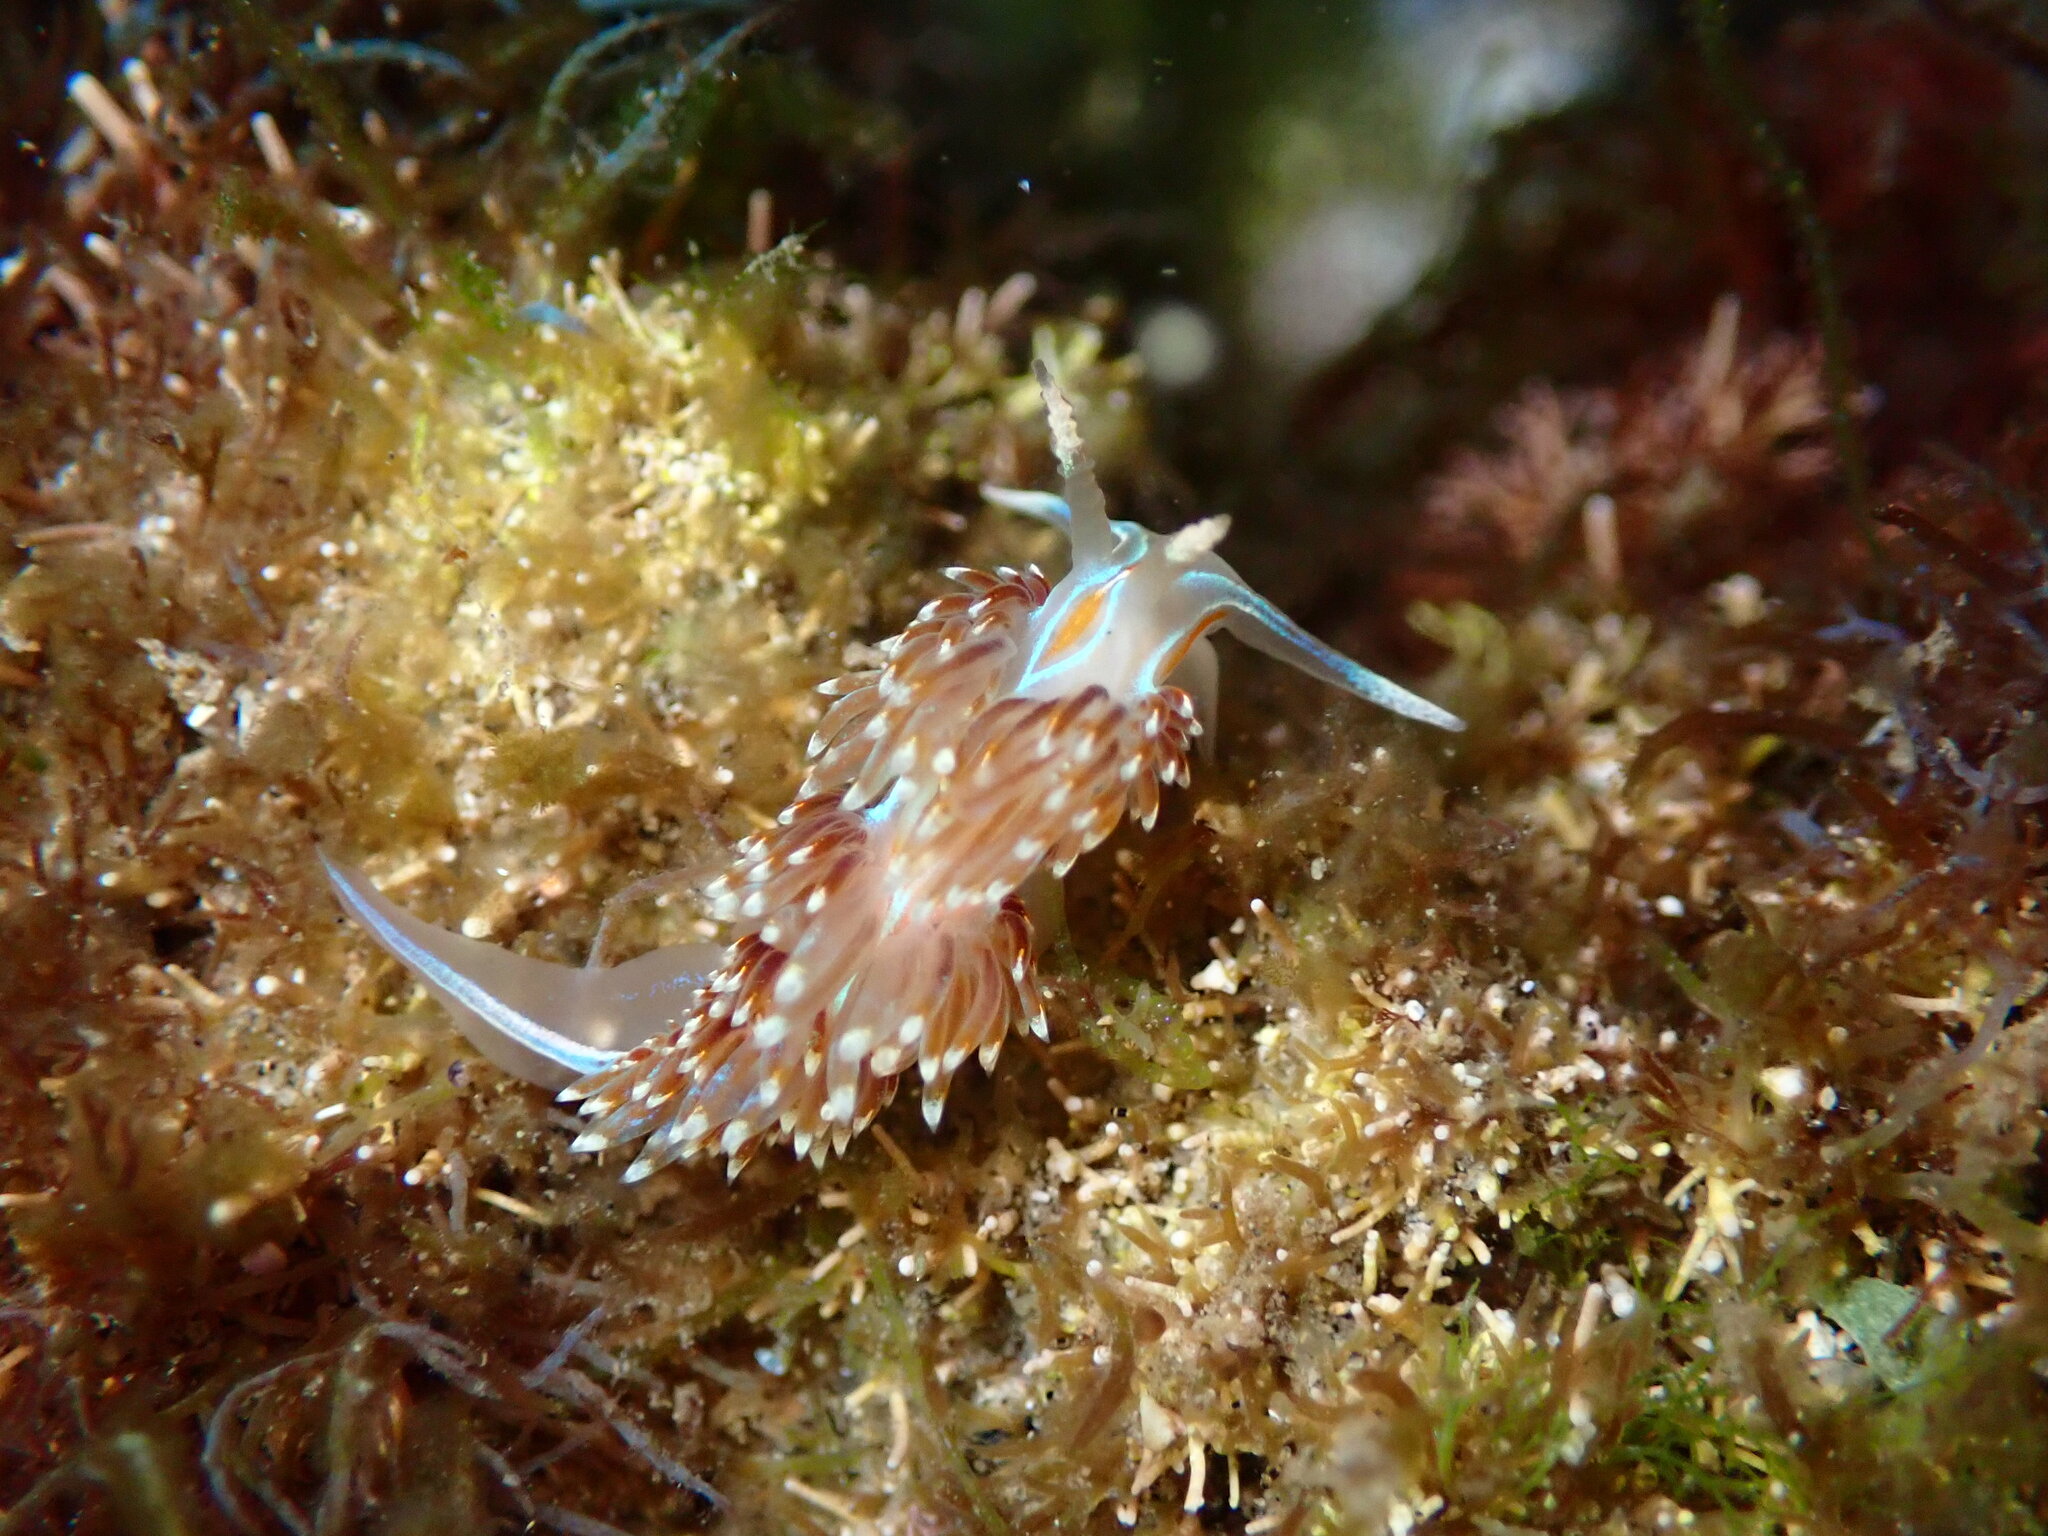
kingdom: Animalia
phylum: Mollusca
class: Gastropoda
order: Nudibranchia
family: Myrrhinidae
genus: Hermissenda
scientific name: Hermissenda opalescens
